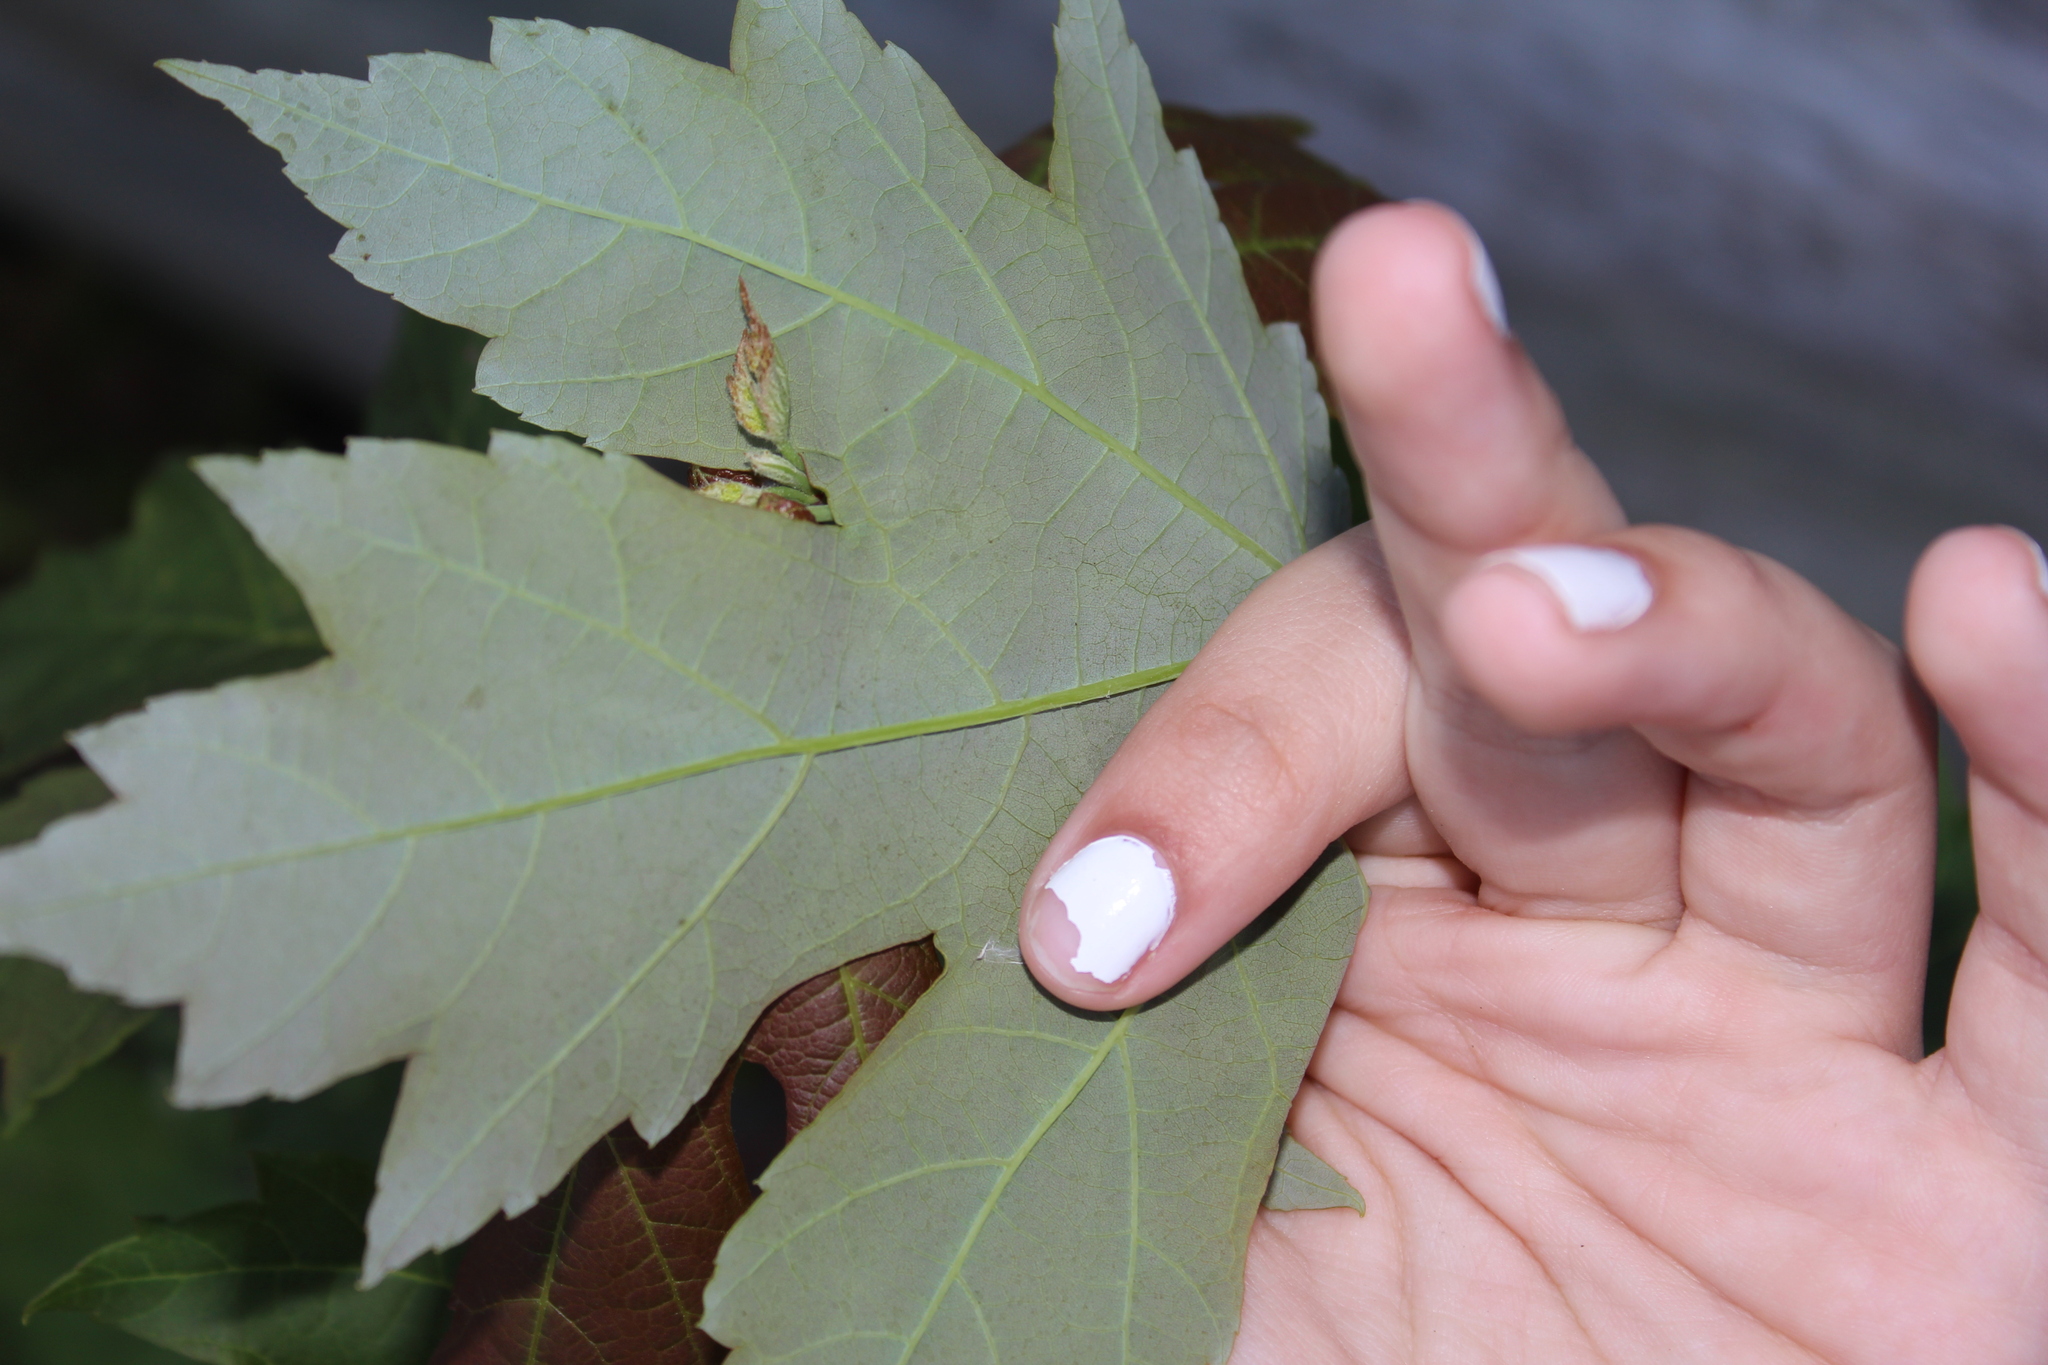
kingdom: Plantae
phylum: Tracheophyta
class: Magnoliopsida
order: Sapindales
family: Sapindaceae
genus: Acer
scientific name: Acer saccharinum
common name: Silver maple
